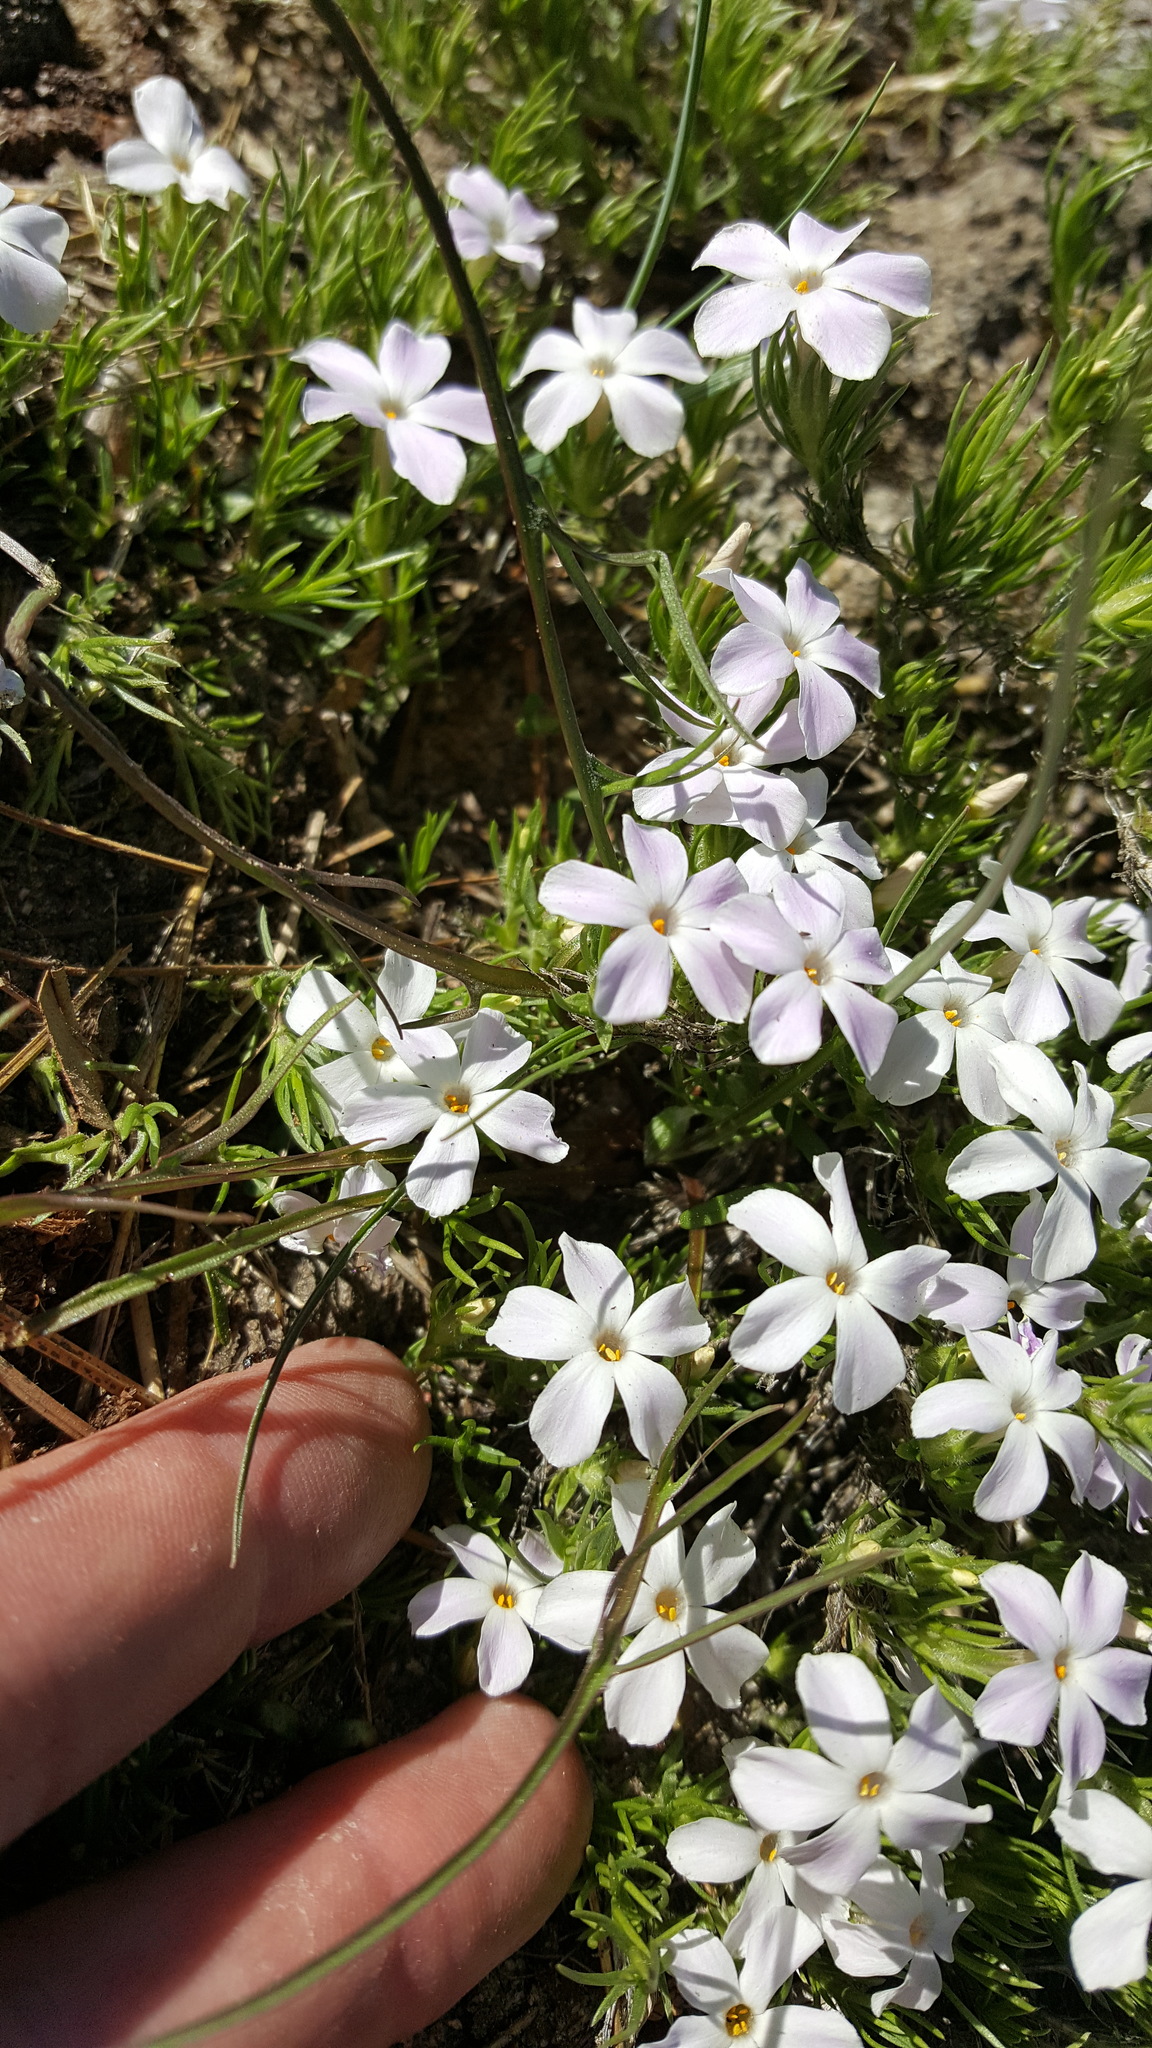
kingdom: Plantae
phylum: Tracheophyta
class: Magnoliopsida
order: Ericales
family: Polemoniaceae
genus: Phlox
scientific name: Phlox diffusa
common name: Mat phlox
